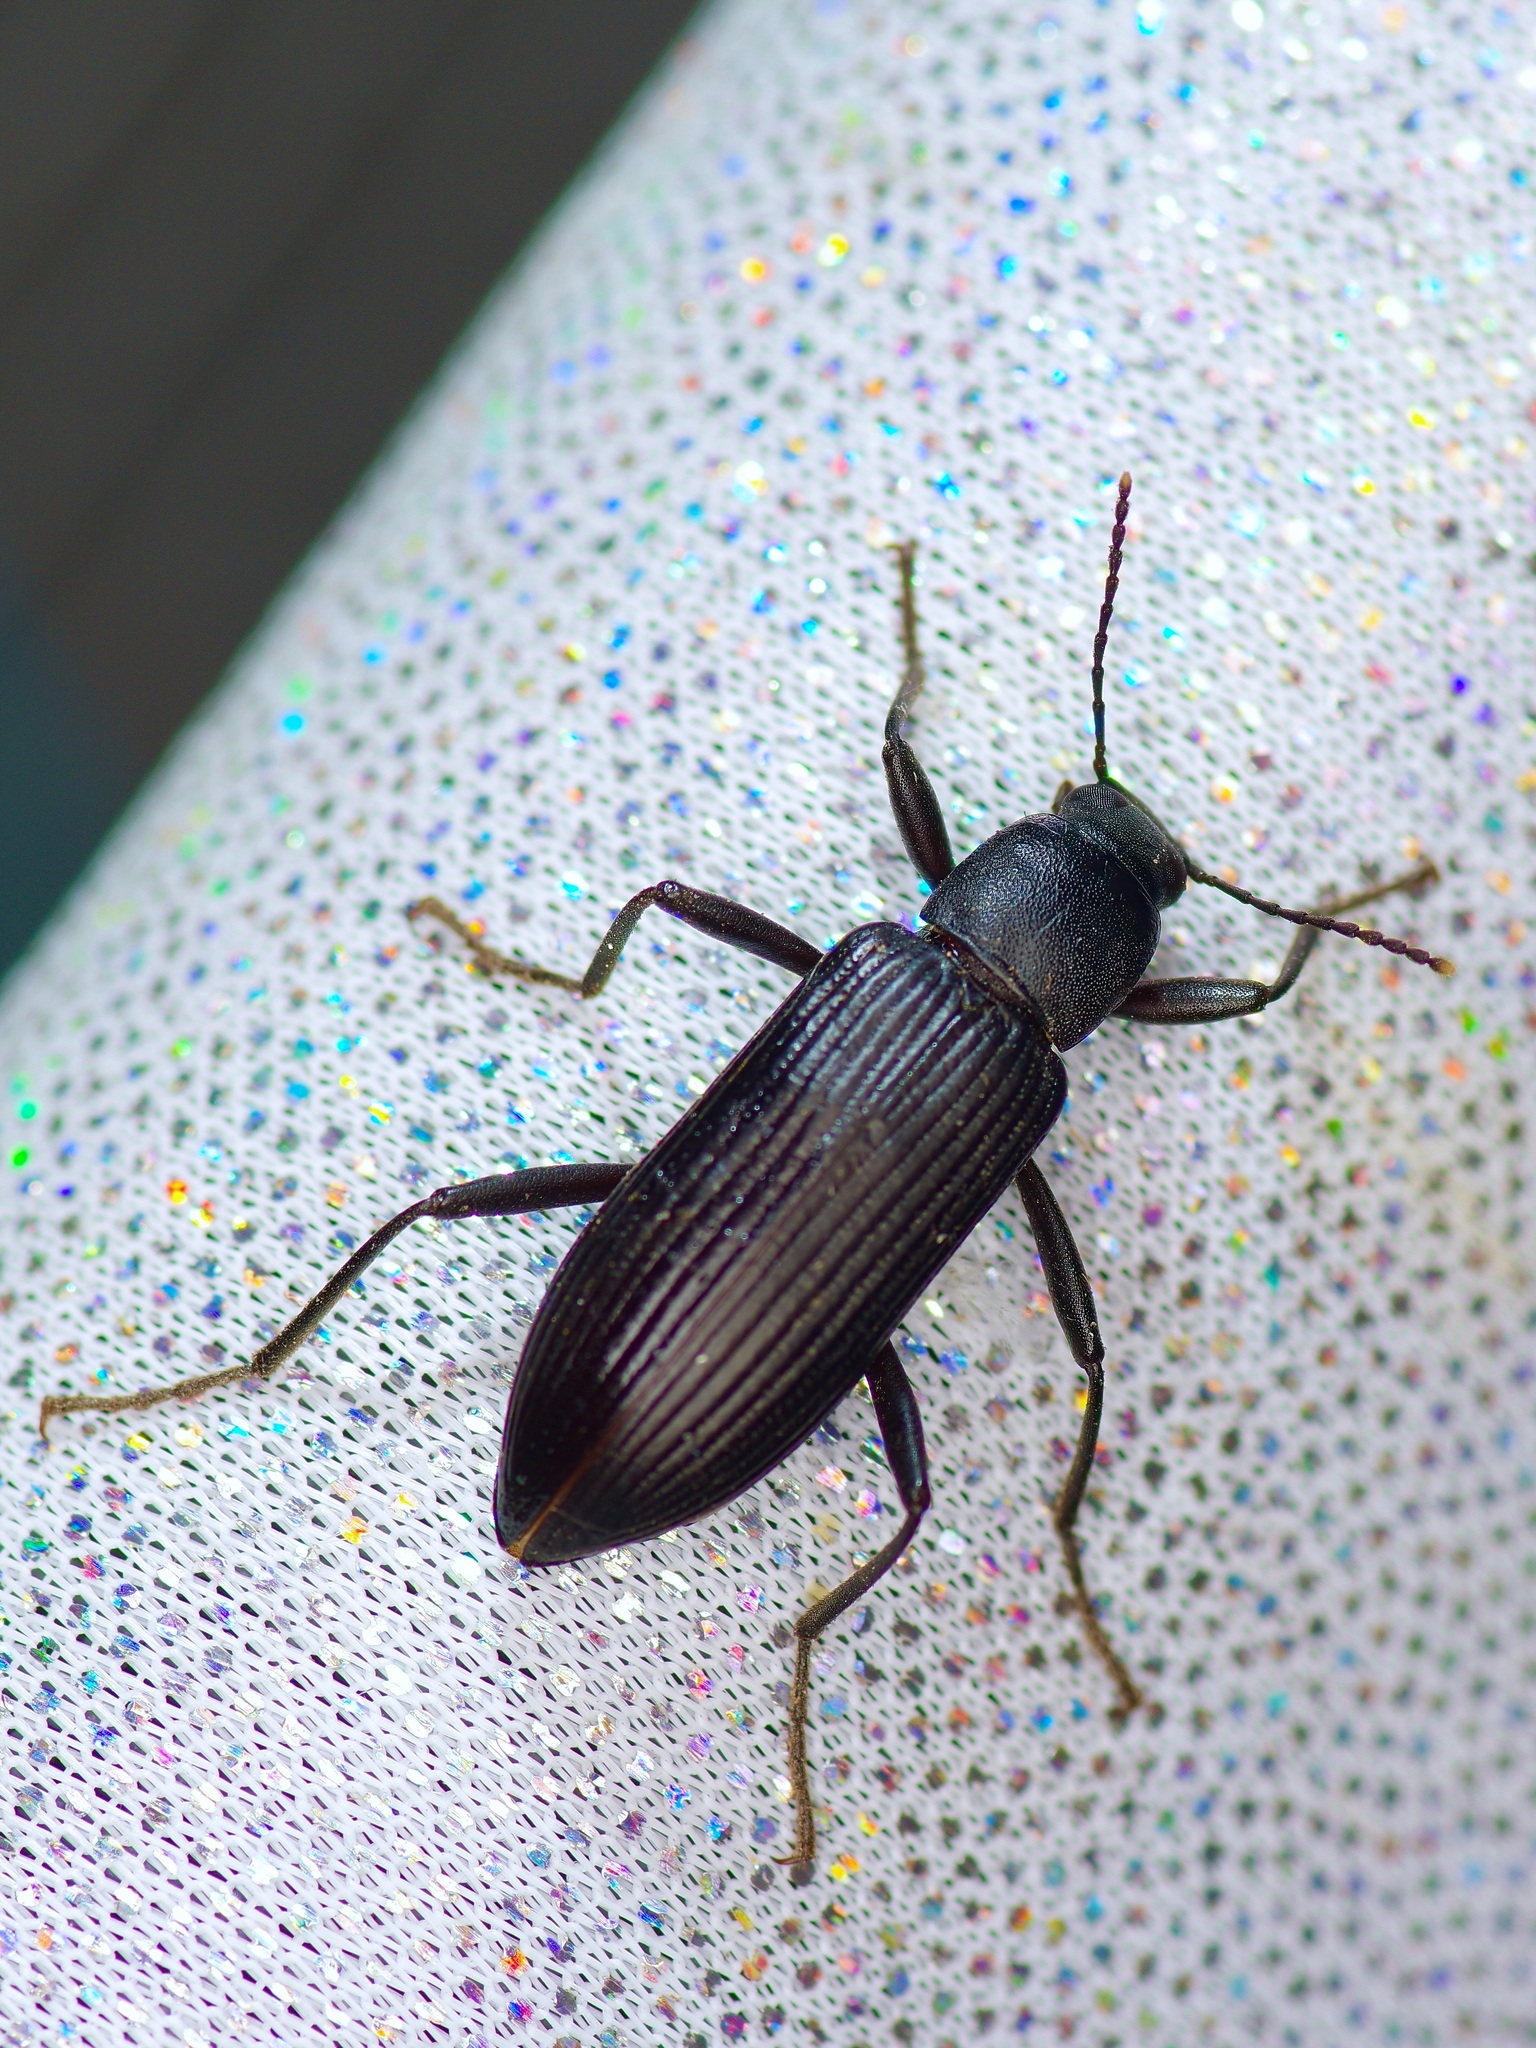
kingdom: Animalia
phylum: Arthropoda
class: Insecta
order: Coleoptera
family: Tenebrionidae
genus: Strongylium
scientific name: Strongylium tenuicolle
